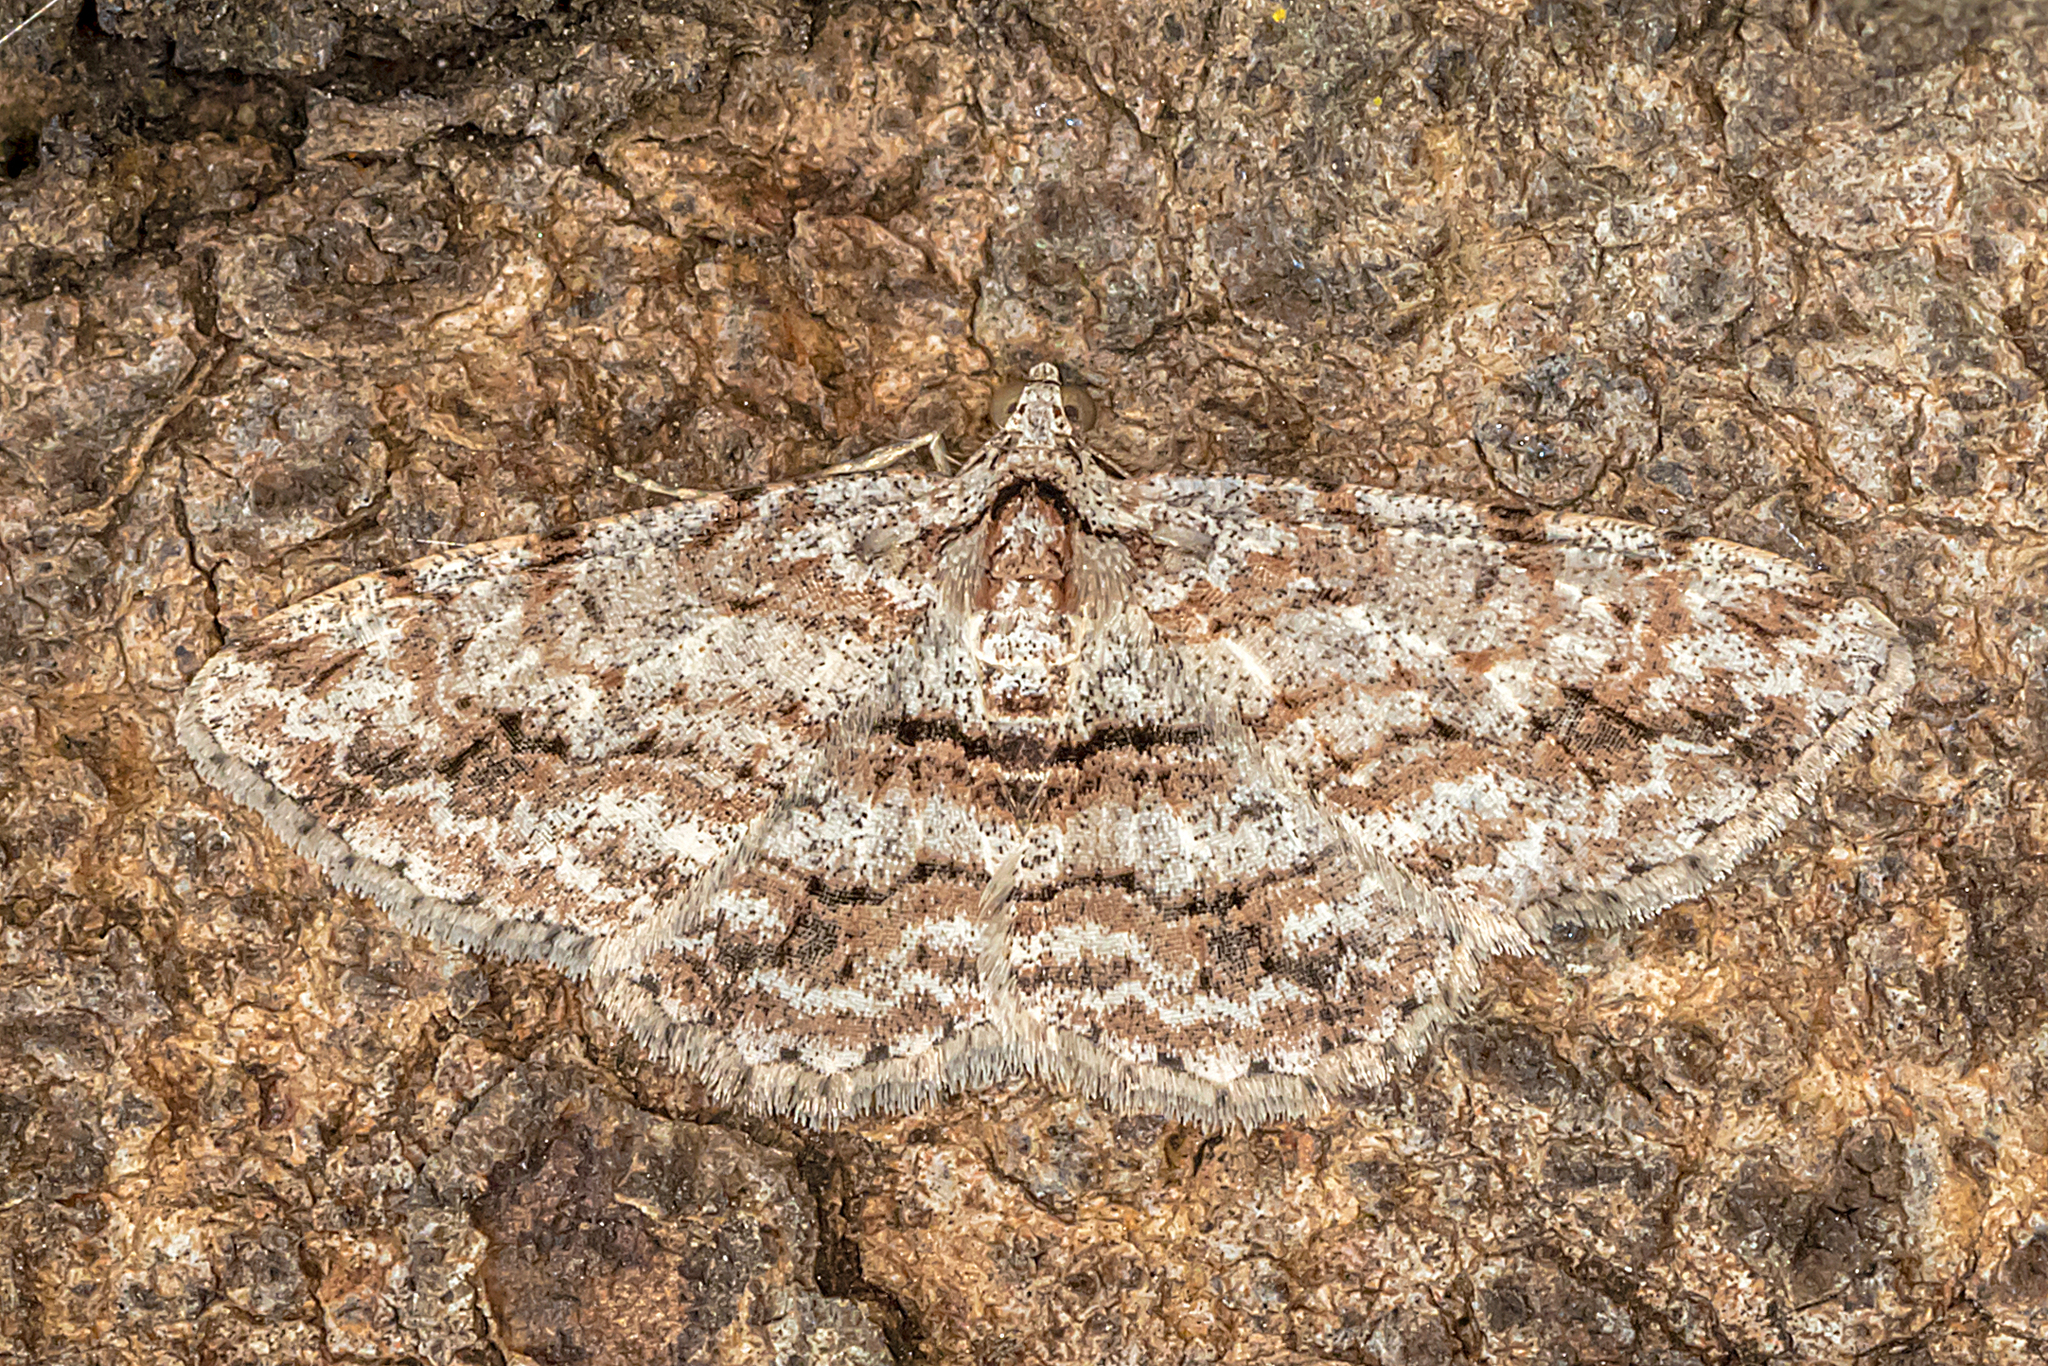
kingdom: Animalia
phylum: Arthropoda
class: Insecta
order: Lepidoptera
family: Geometridae
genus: Didymoctenia
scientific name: Didymoctenia exsuperata
